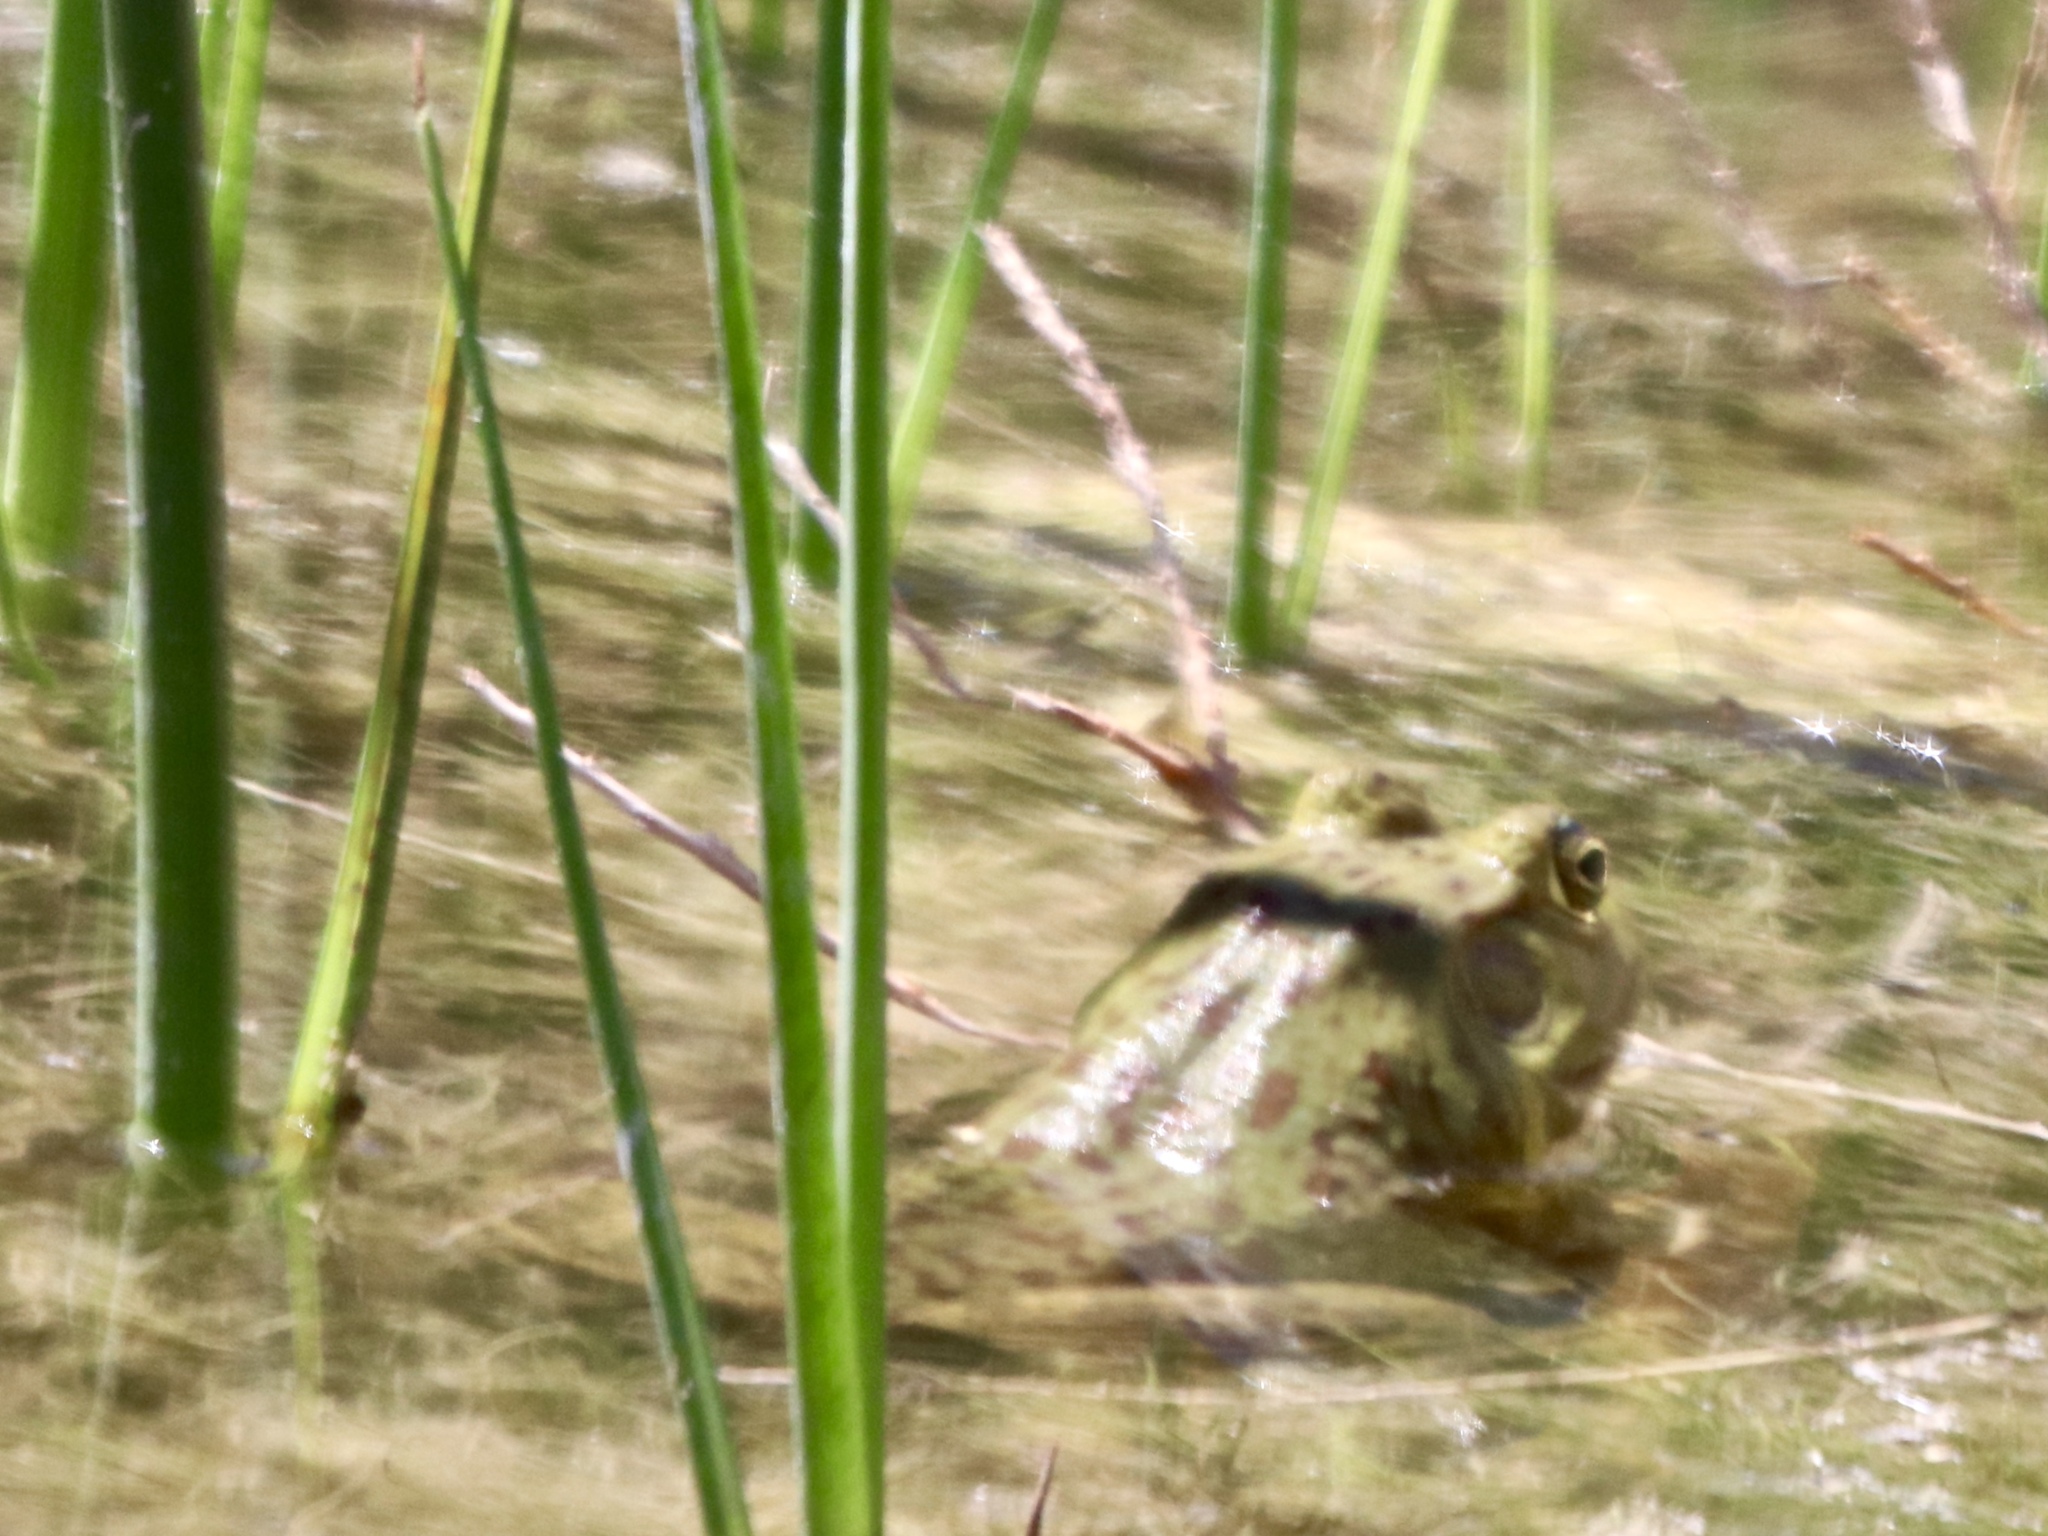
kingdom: Animalia
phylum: Chordata
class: Amphibia
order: Anura
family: Ranidae
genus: Lithobates
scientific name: Lithobates catesbeianus
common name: American bullfrog
